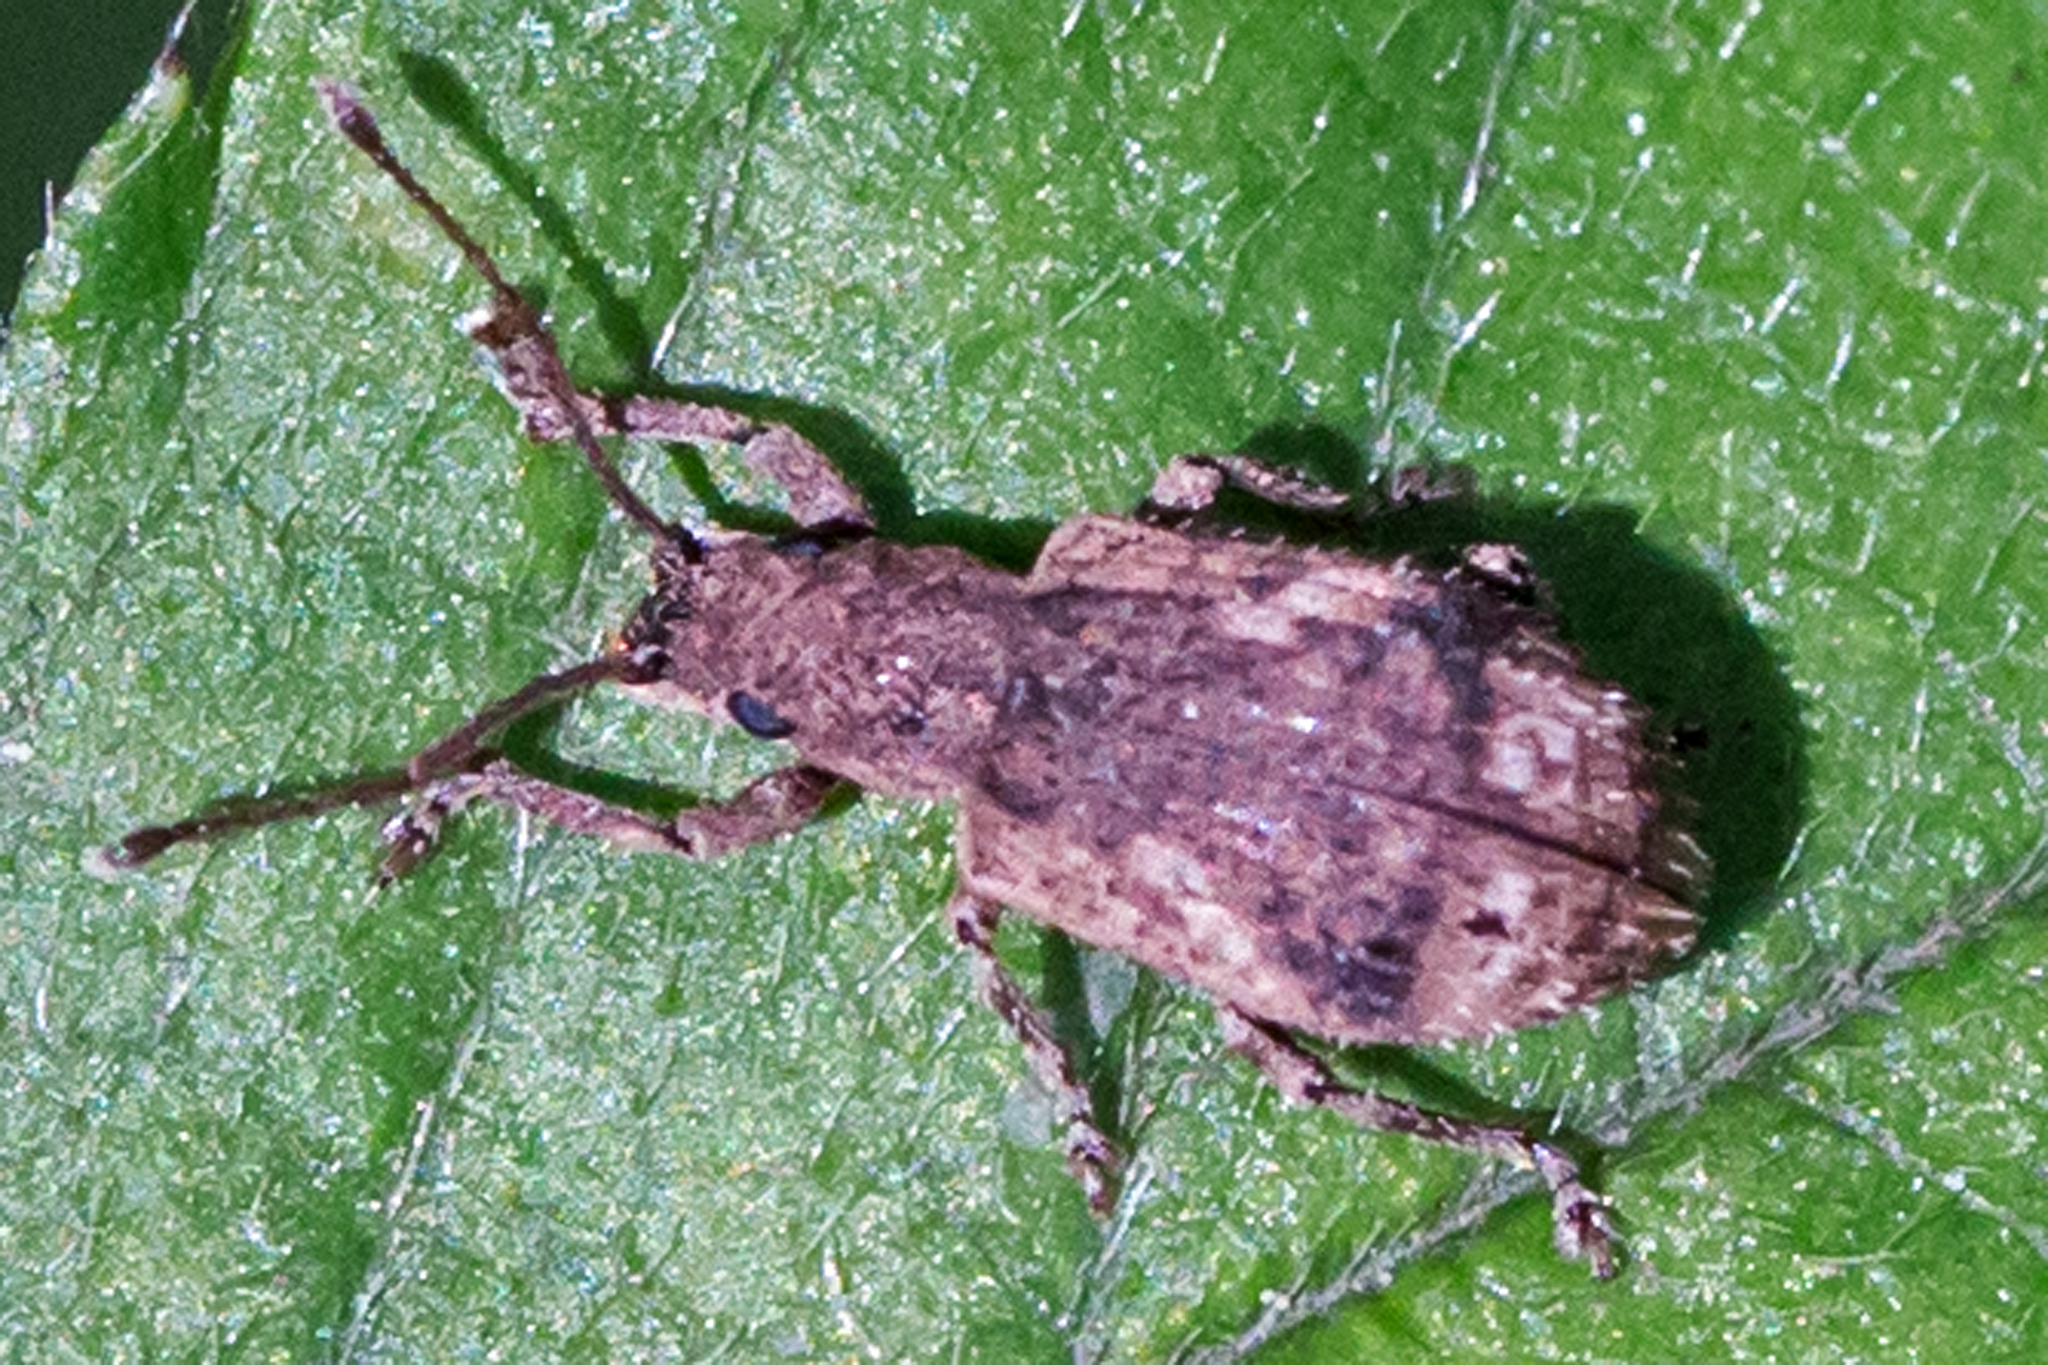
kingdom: Animalia
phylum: Arthropoda
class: Insecta
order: Coleoptera
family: Curculionidae
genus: Pseudoedophrys
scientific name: Pseudoedophrys hilleri
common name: Weevil
